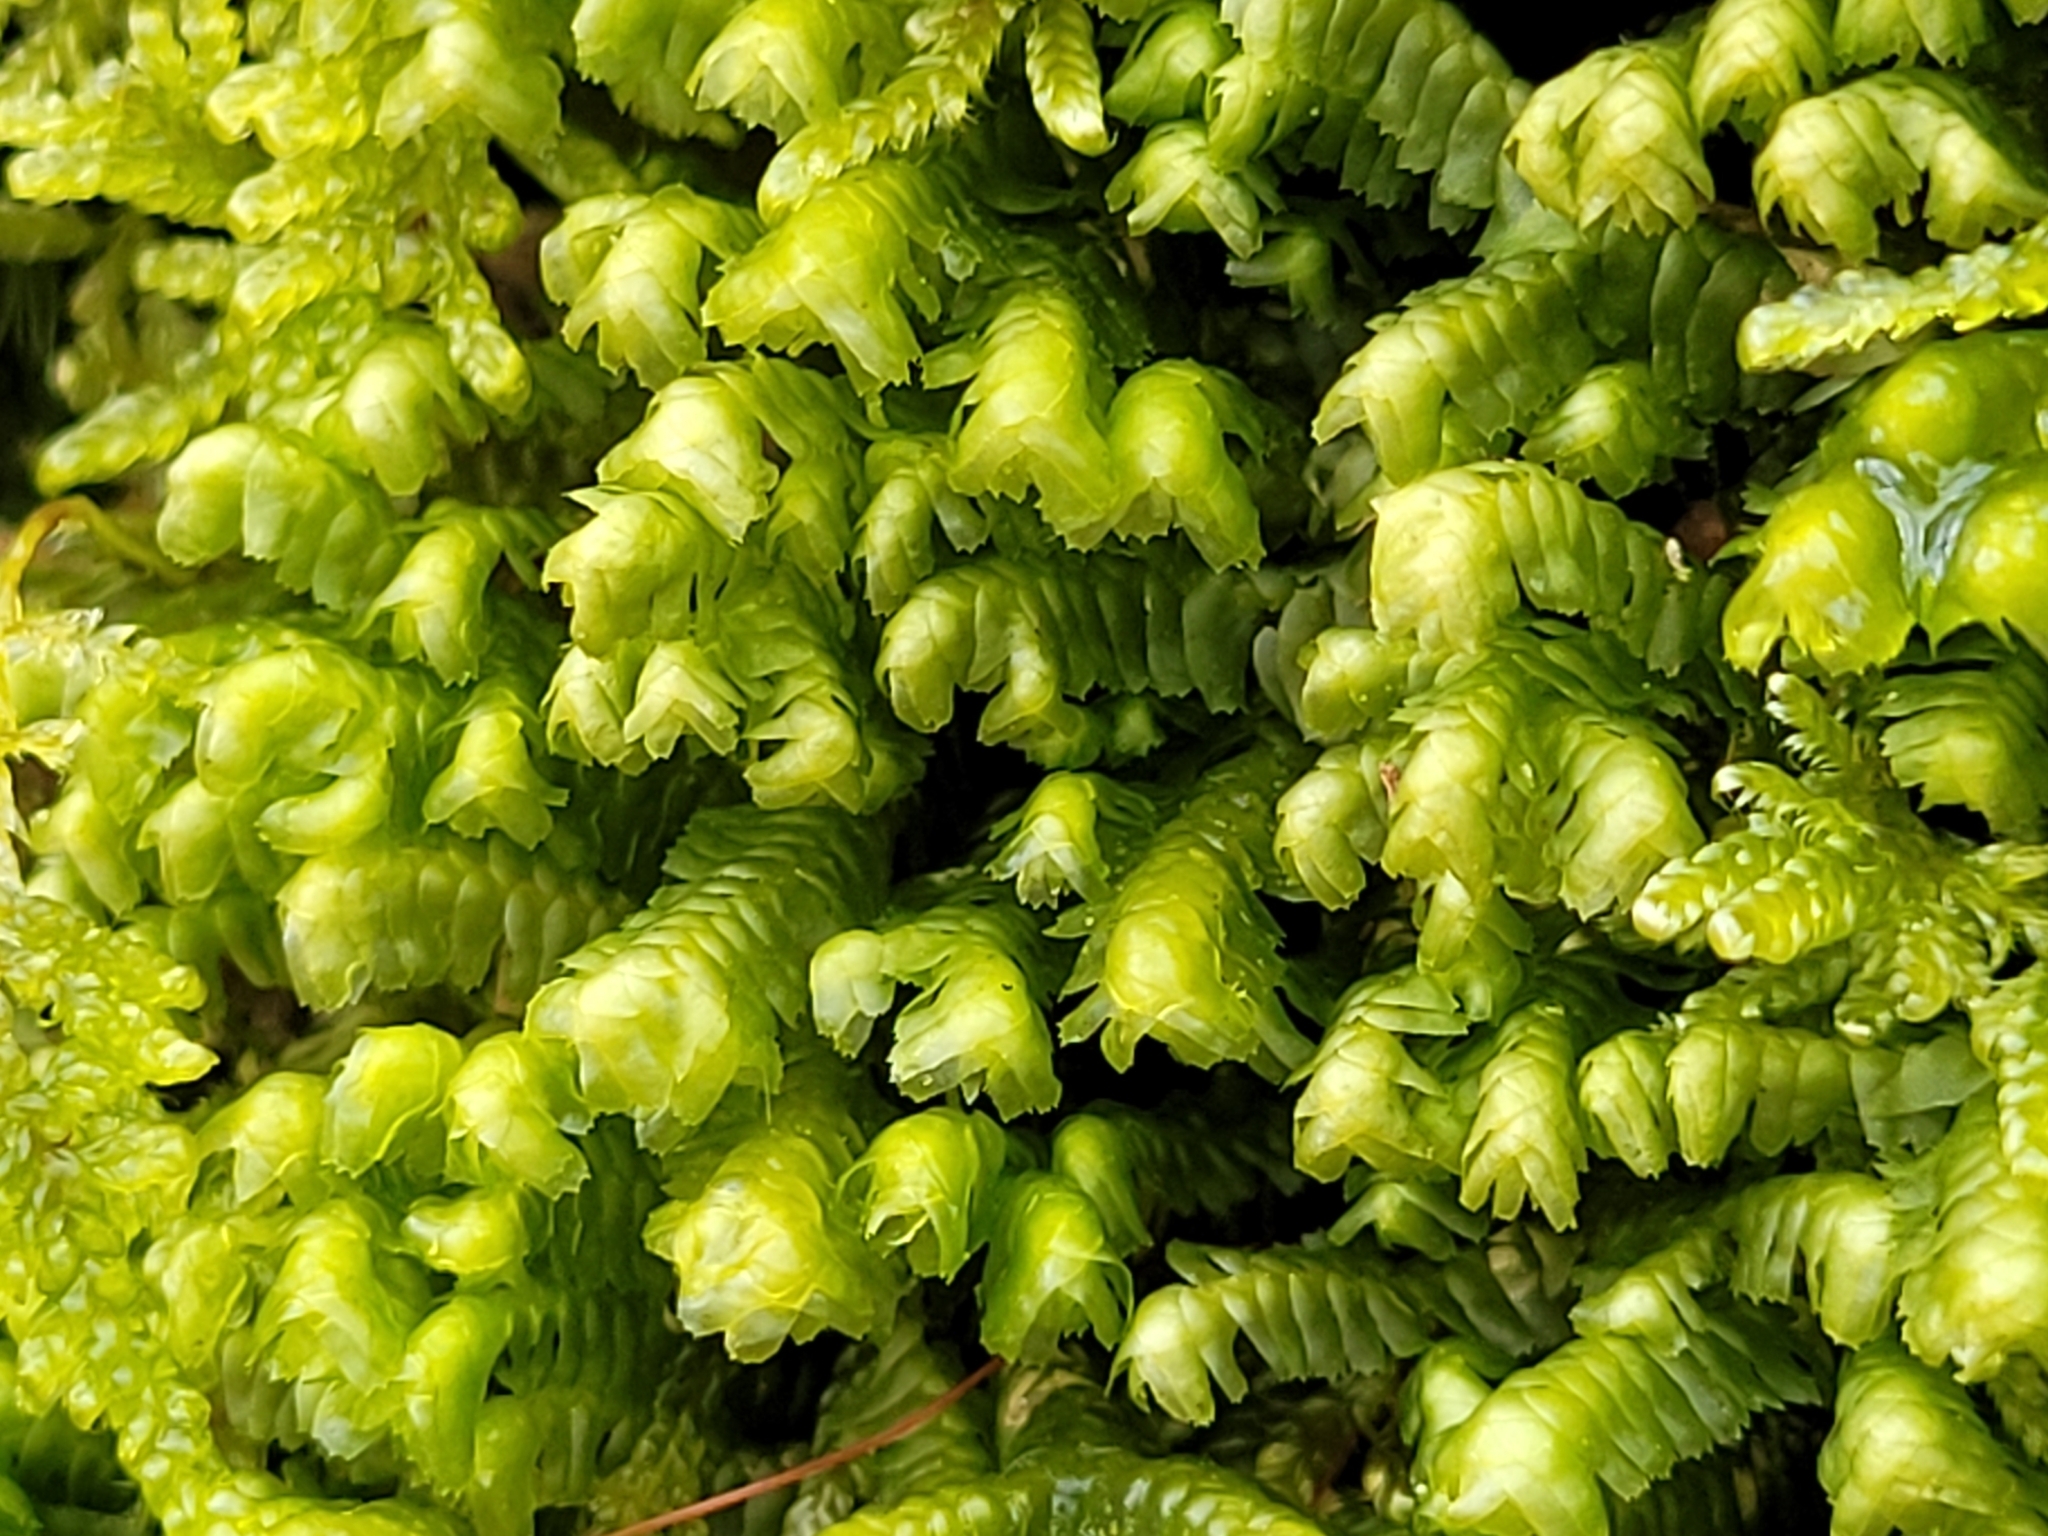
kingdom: Plantae
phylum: Marchantiophyta
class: Jungermanniopsida
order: Jungermanniales
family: Lepidoziaceae
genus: Bazzania
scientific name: Bazzania trilobata
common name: Three-lobed whipwort
